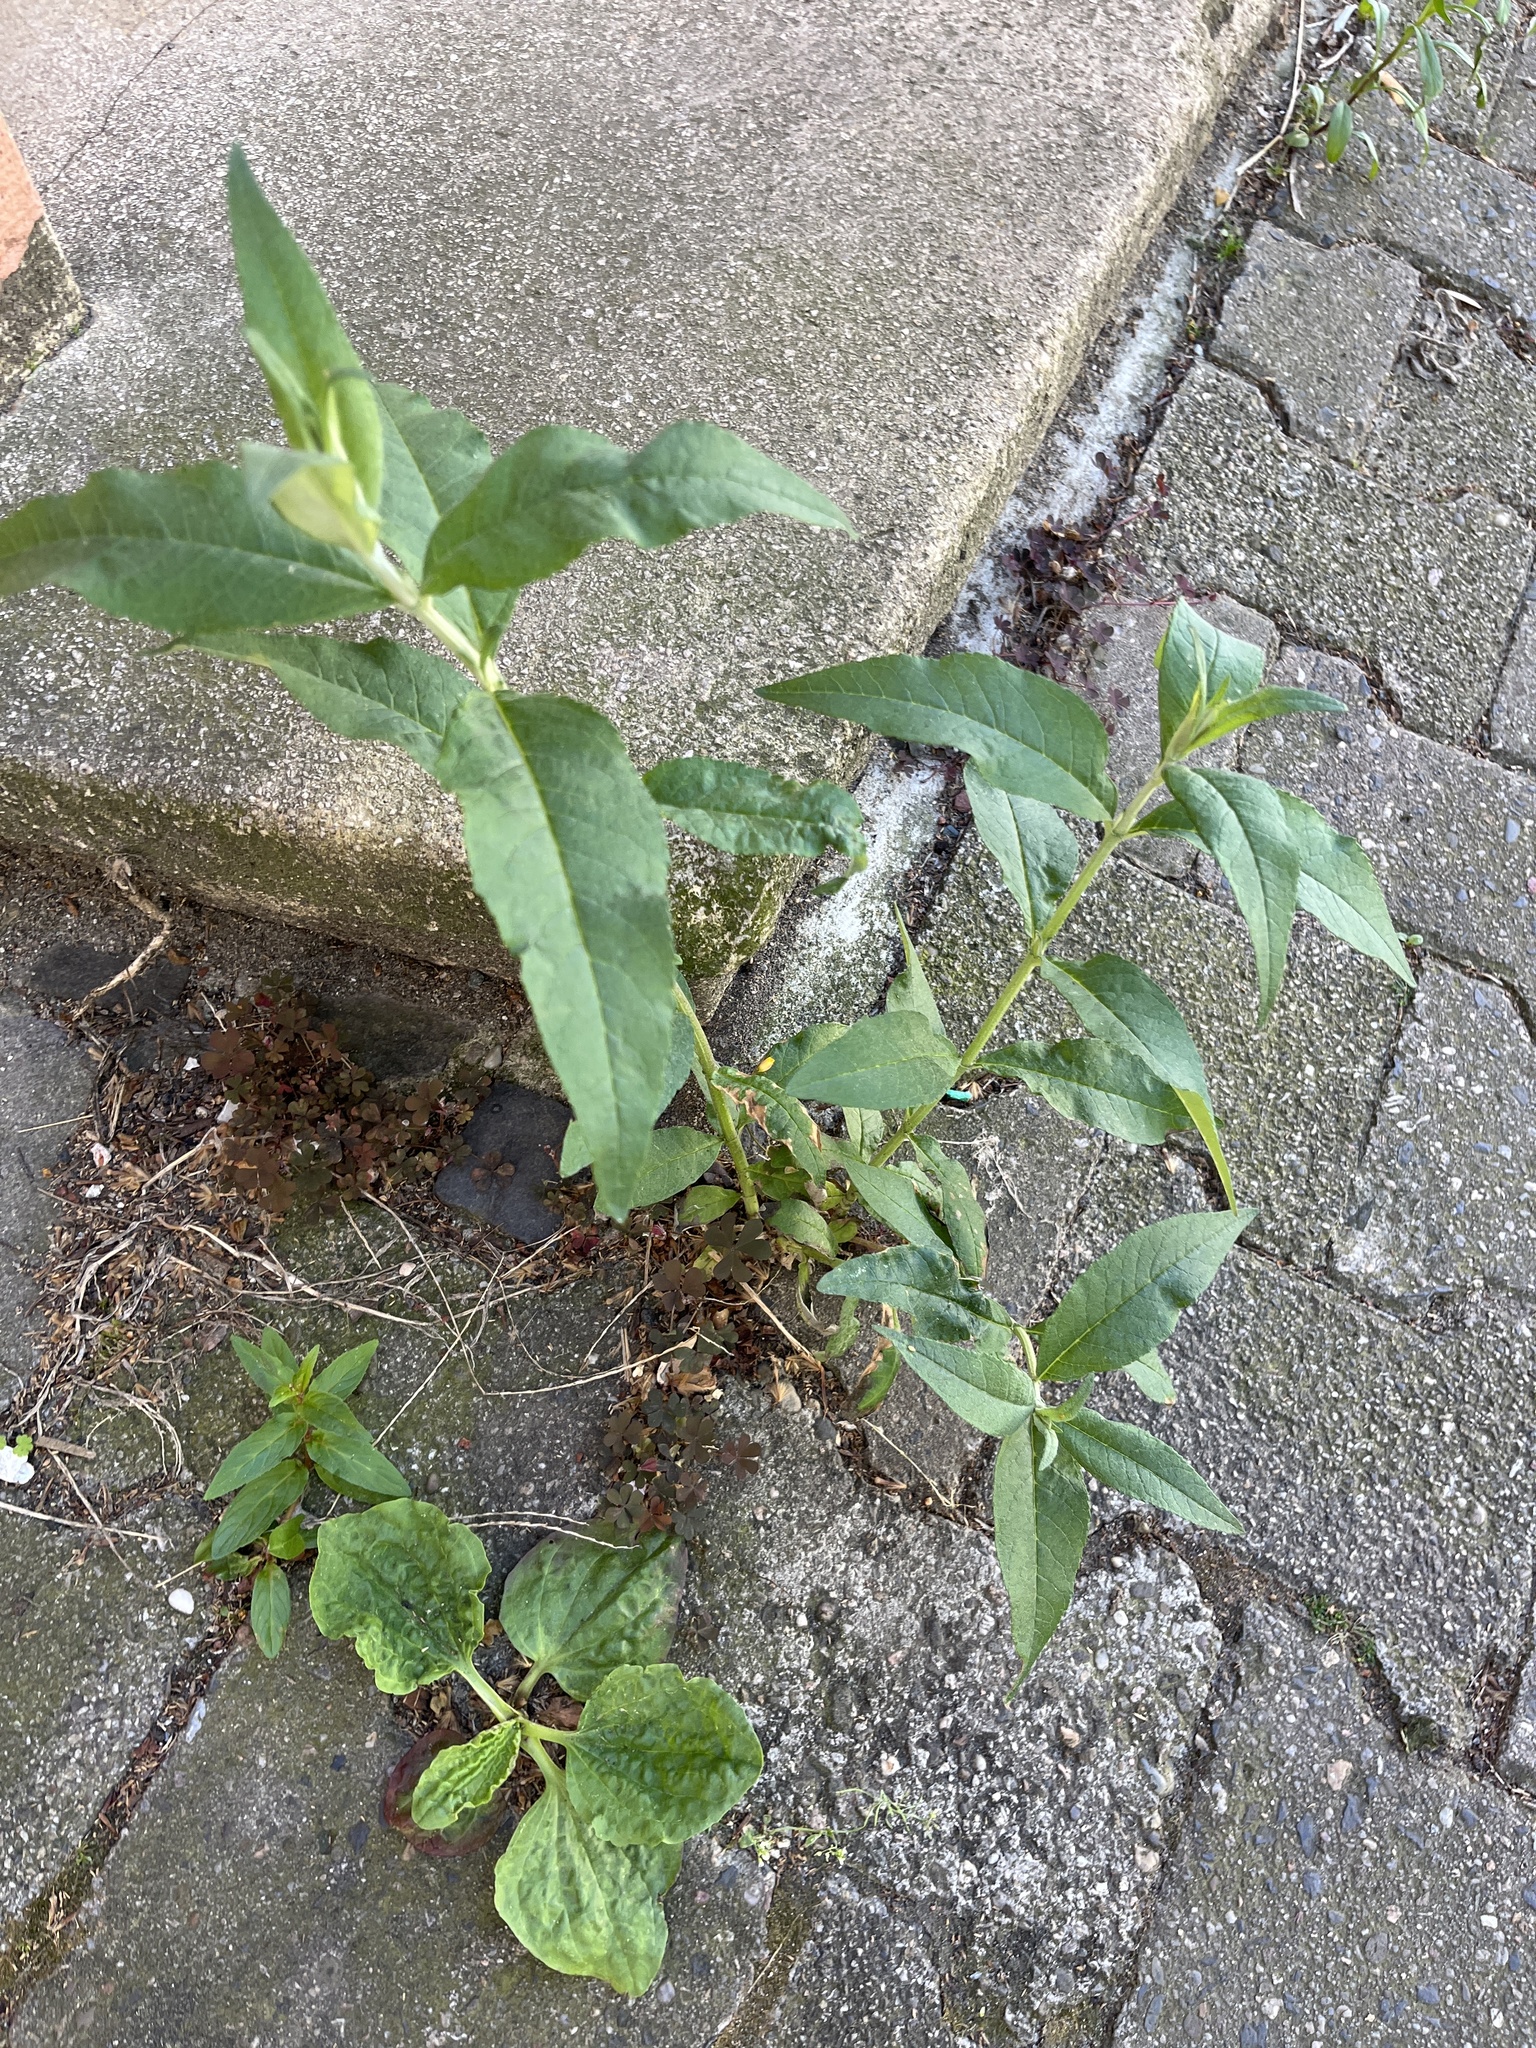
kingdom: Plantae
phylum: Tracheophyta
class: Magnoliopsida
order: Lamiales
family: Scrophulariaceae
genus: Buddleja
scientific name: Buddleja davidii
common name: Butterfly-bush
